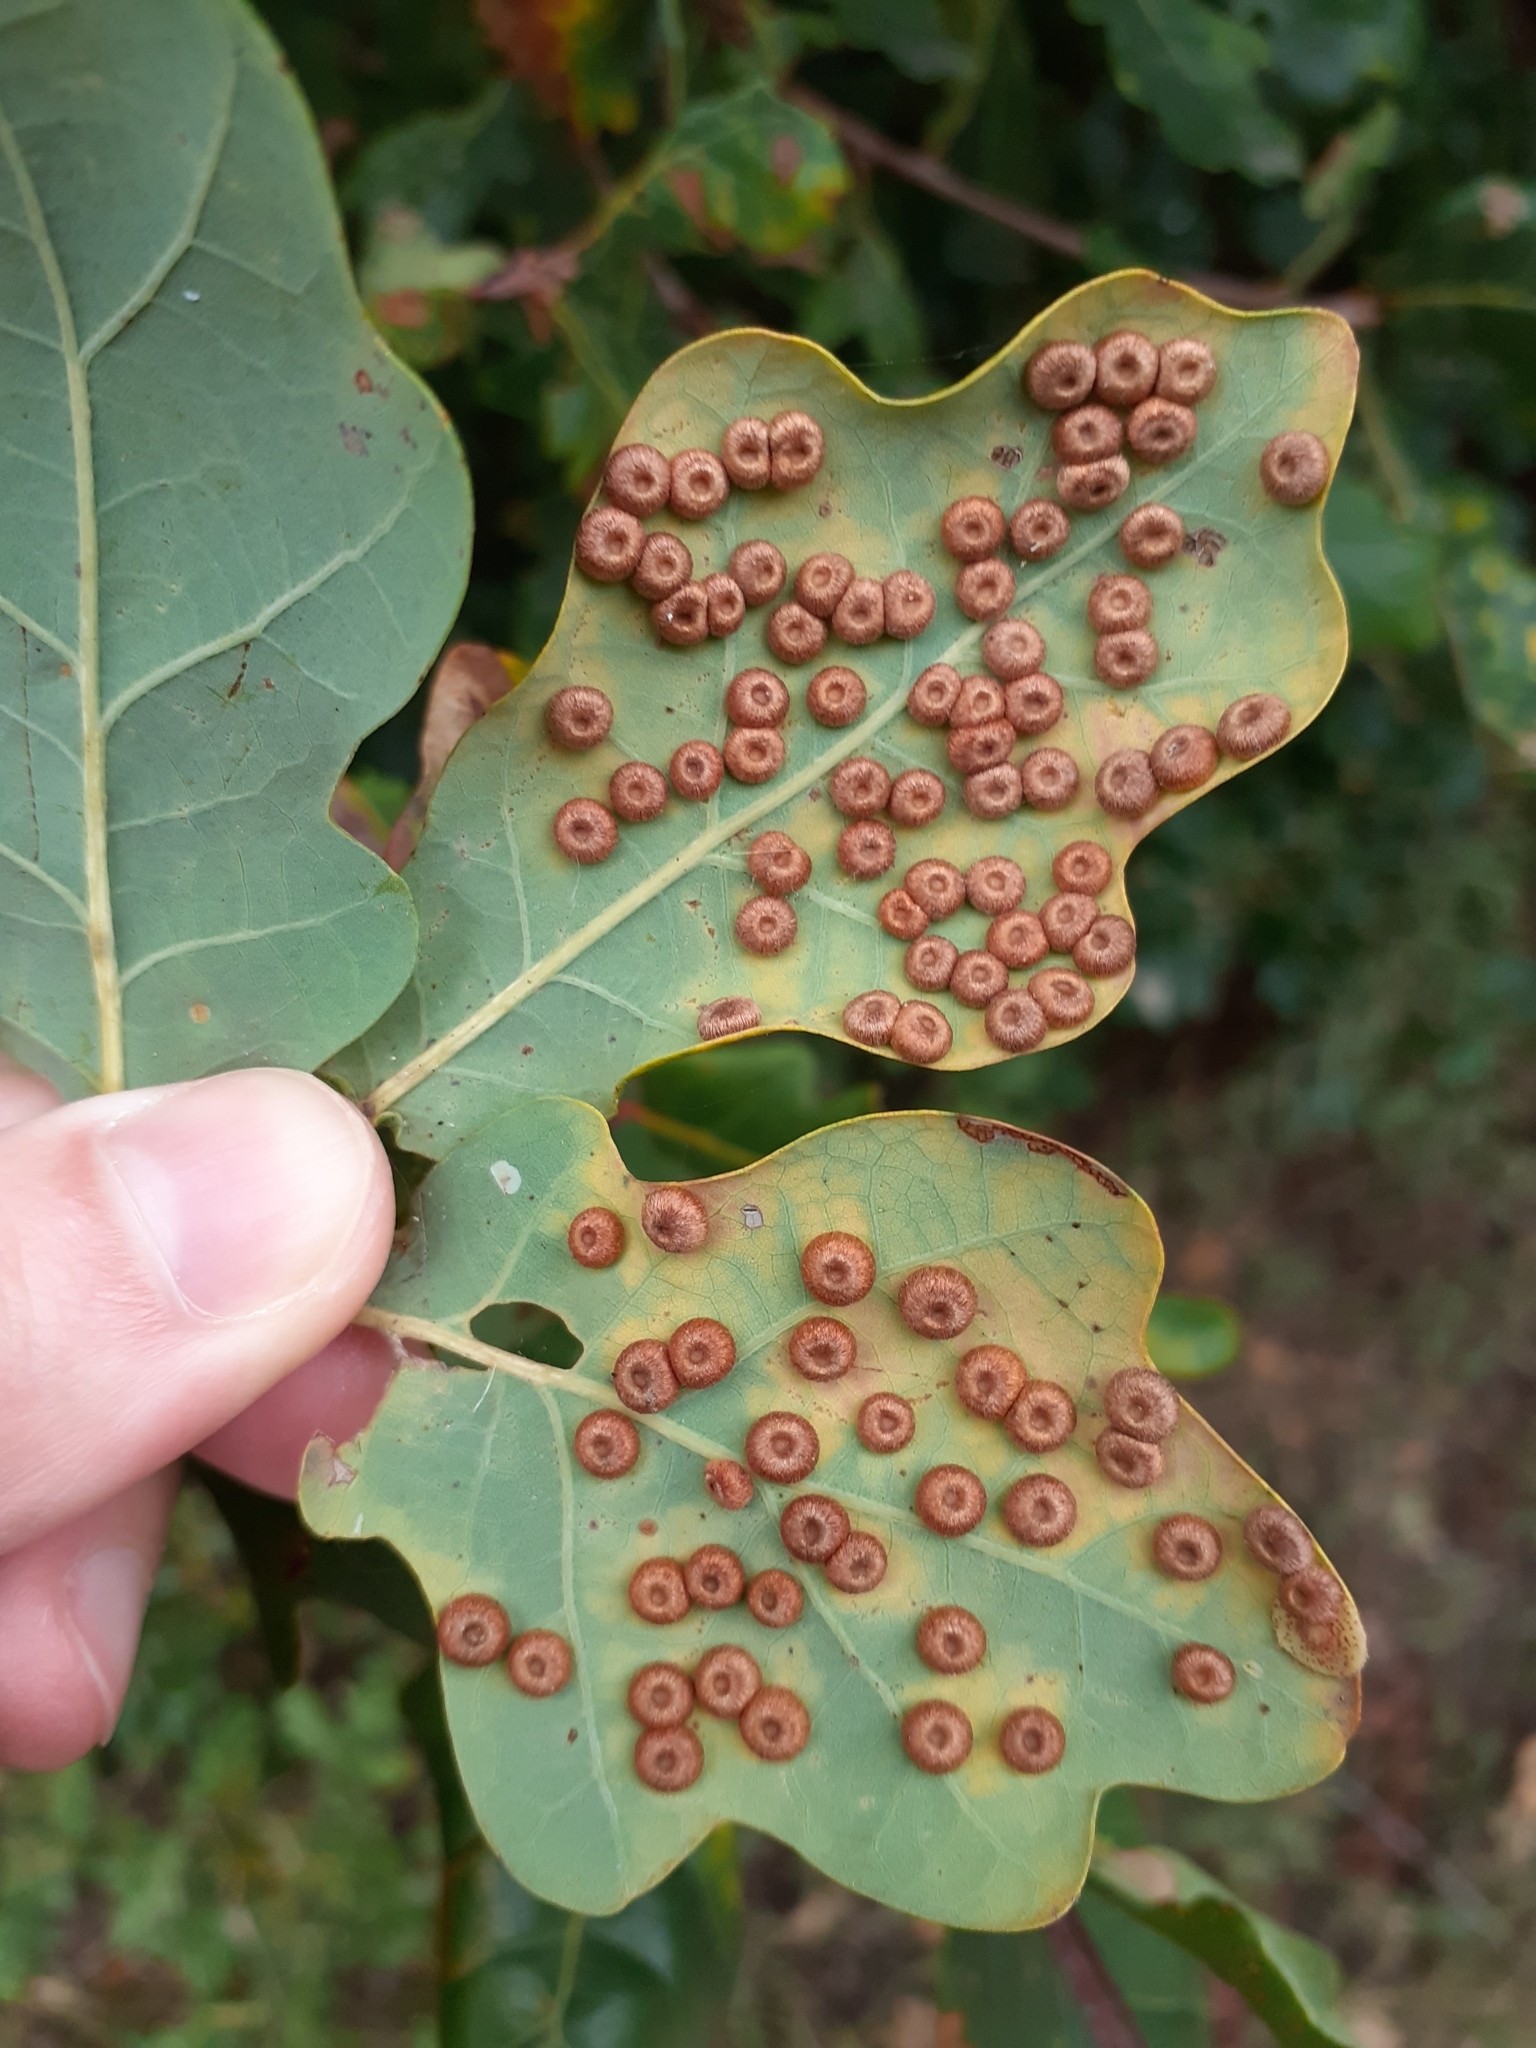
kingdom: Animalia
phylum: Arthropoda
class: Insecta
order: Hymenoptera
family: Cynipidae
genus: Neuroterus
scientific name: Neuroterus numismalis
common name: Silk-button spangle gall
